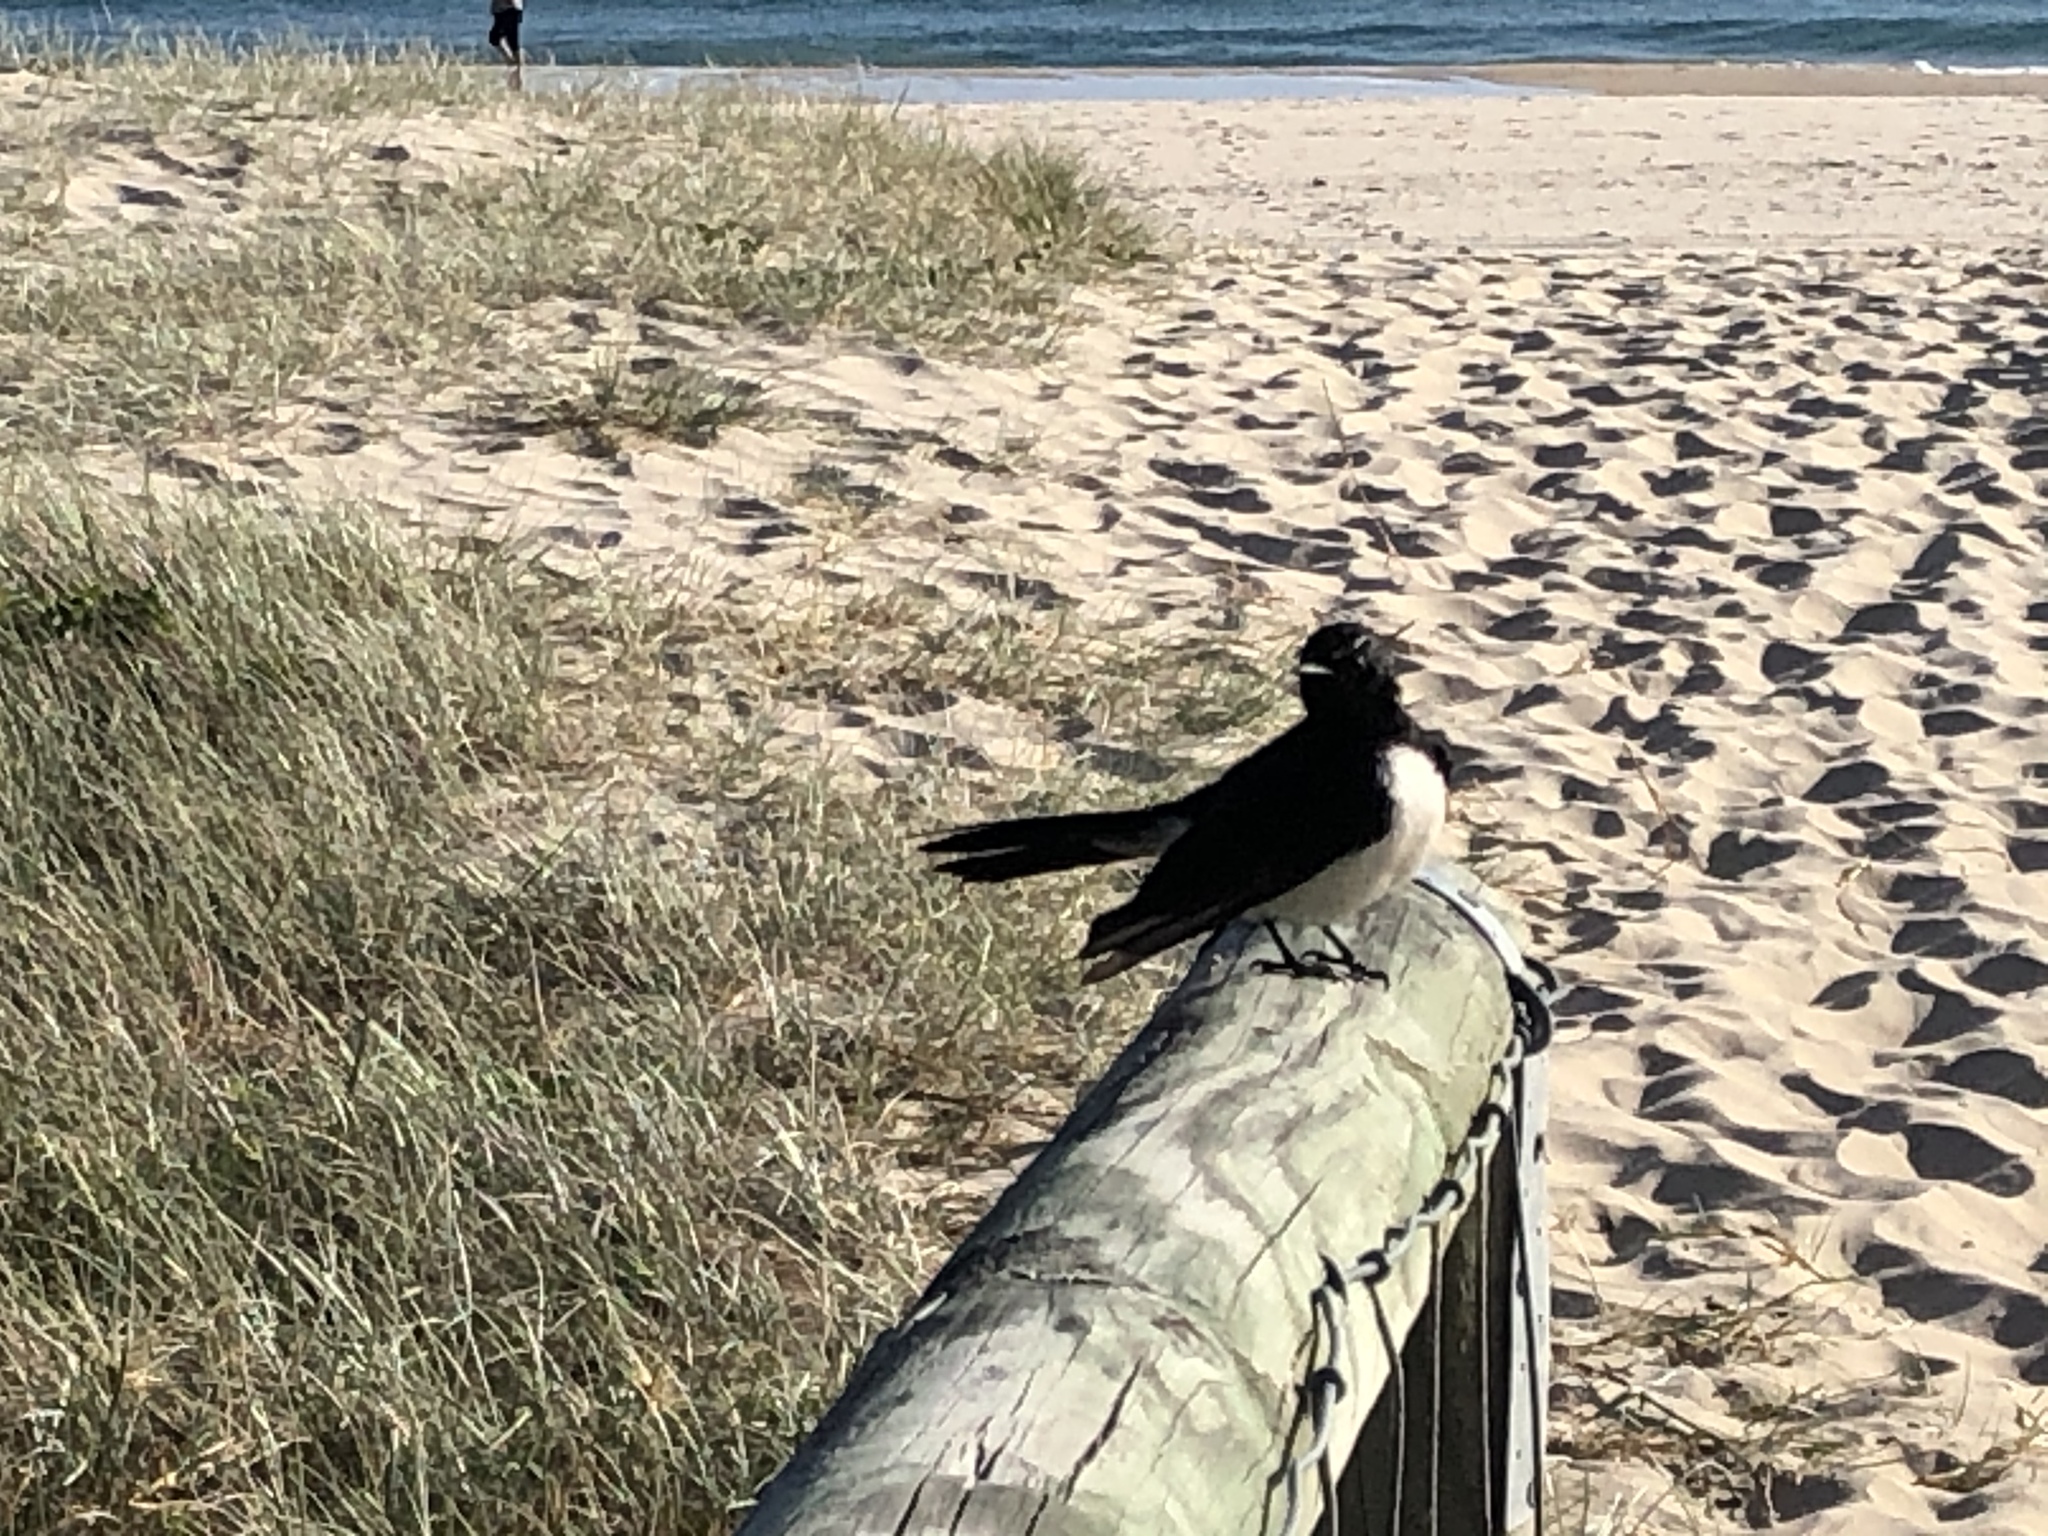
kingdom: Animalia
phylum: Chordata
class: Aves
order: Passeriformes
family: Rhipiduridae
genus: Rhipidura
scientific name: Rhipidura leucophrys
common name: Willie wagtail
